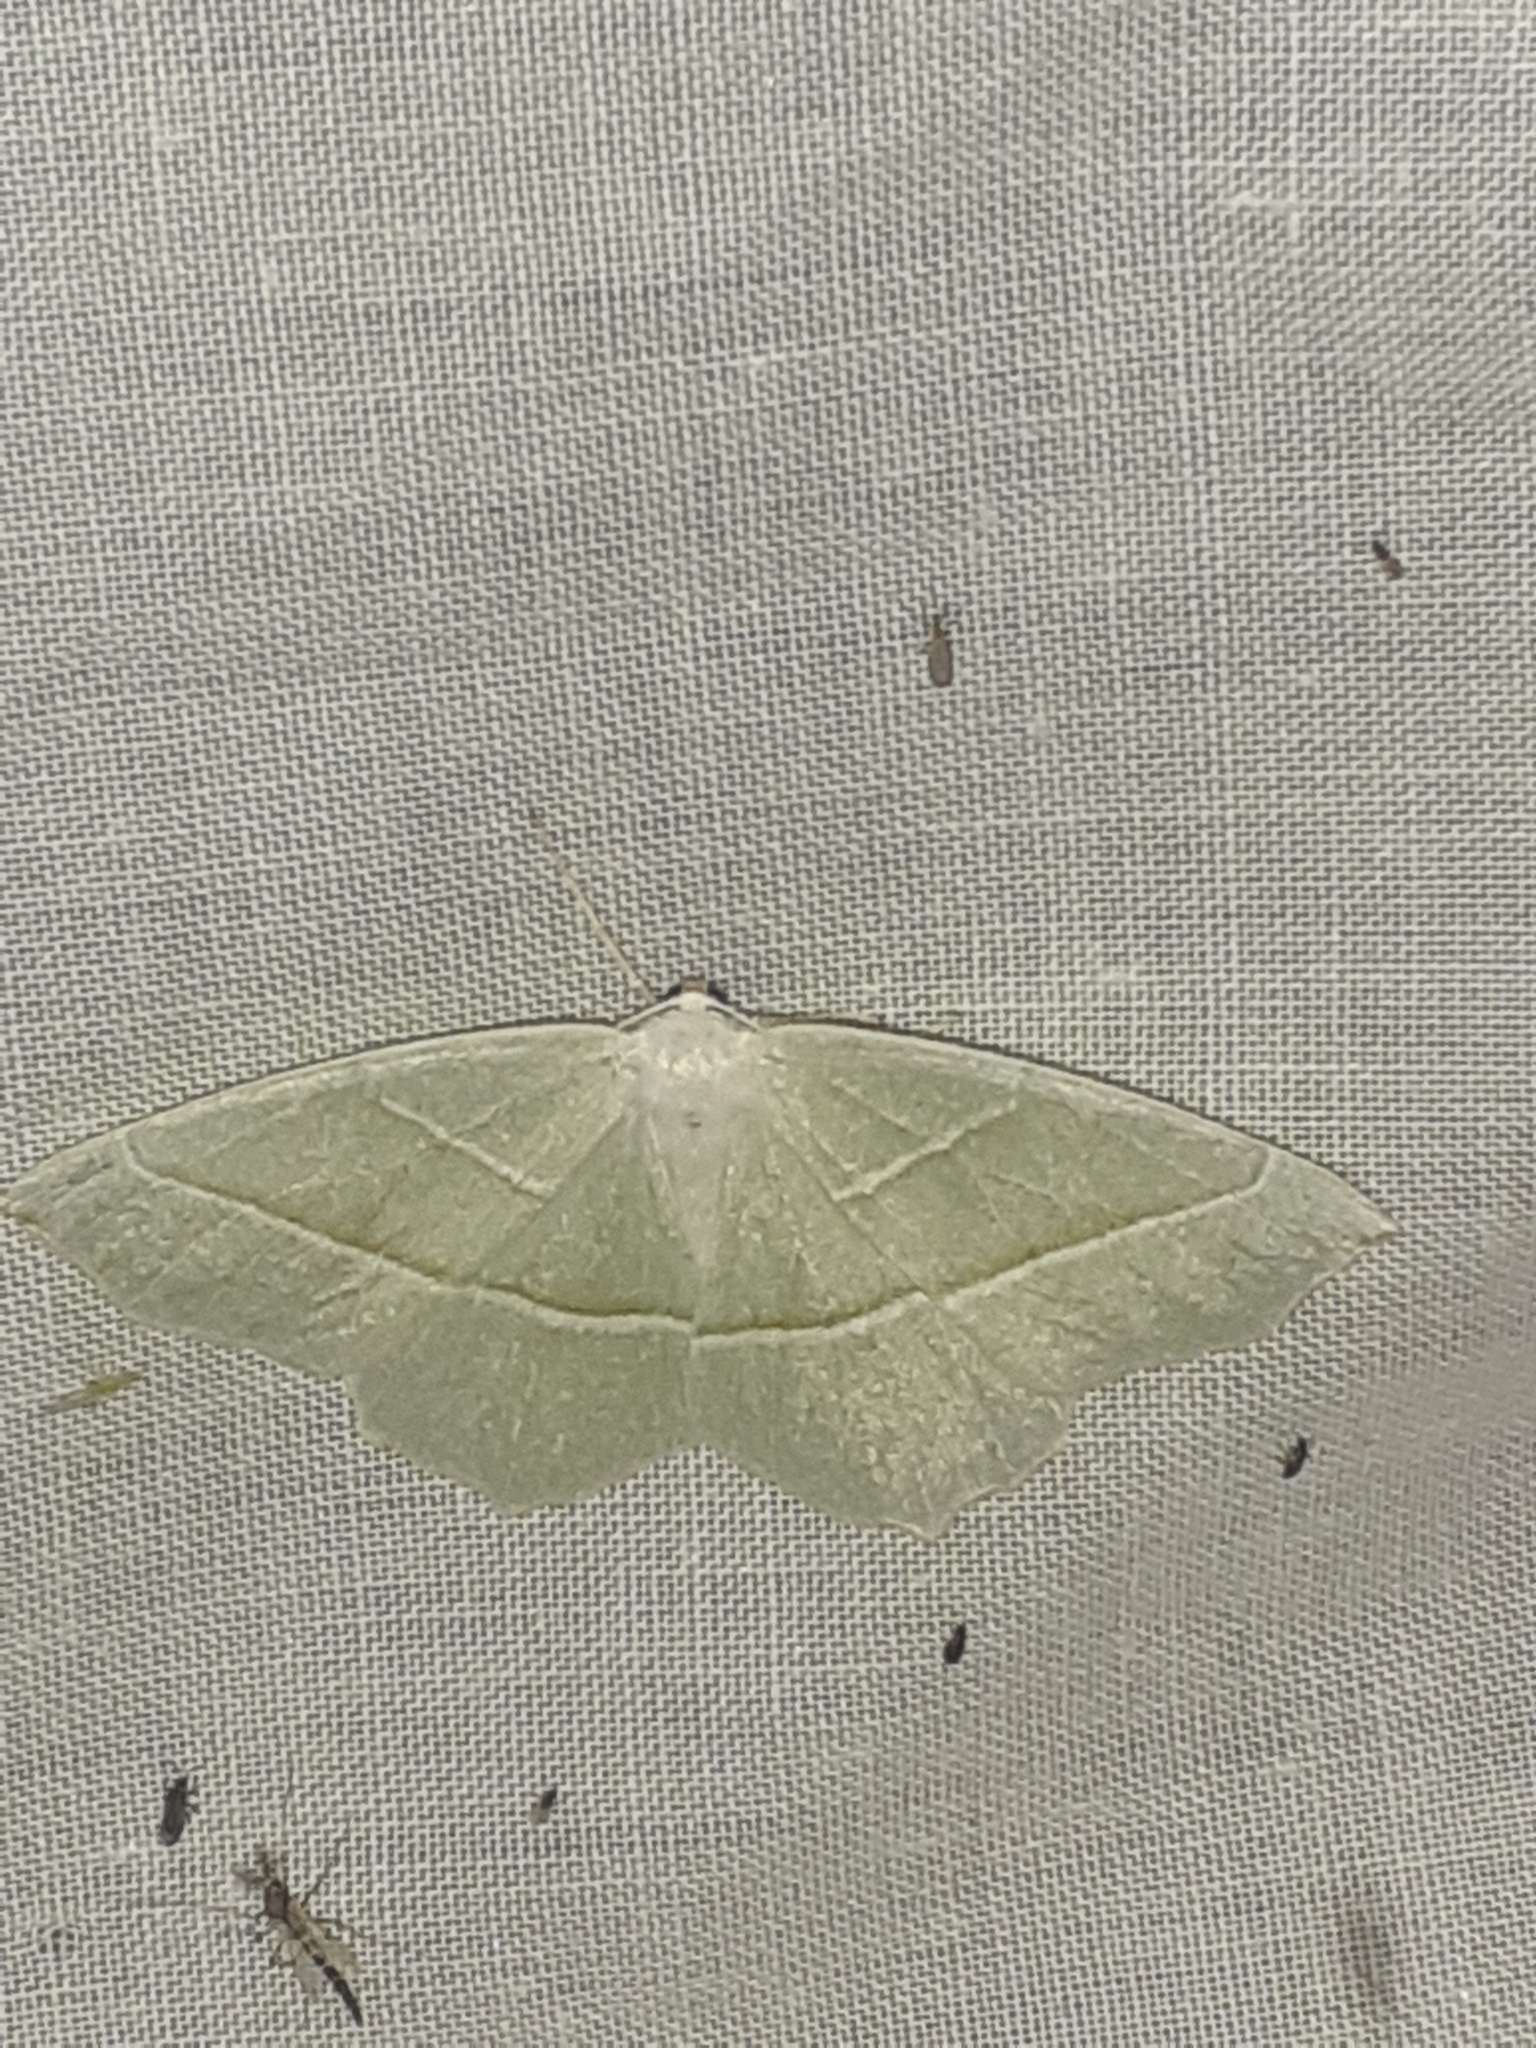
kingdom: Animalia
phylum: Arthropoda
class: Insecta
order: Lepidoptera
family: Geometridae
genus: Campaea
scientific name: Campaea margaritaria
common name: Light emerald
